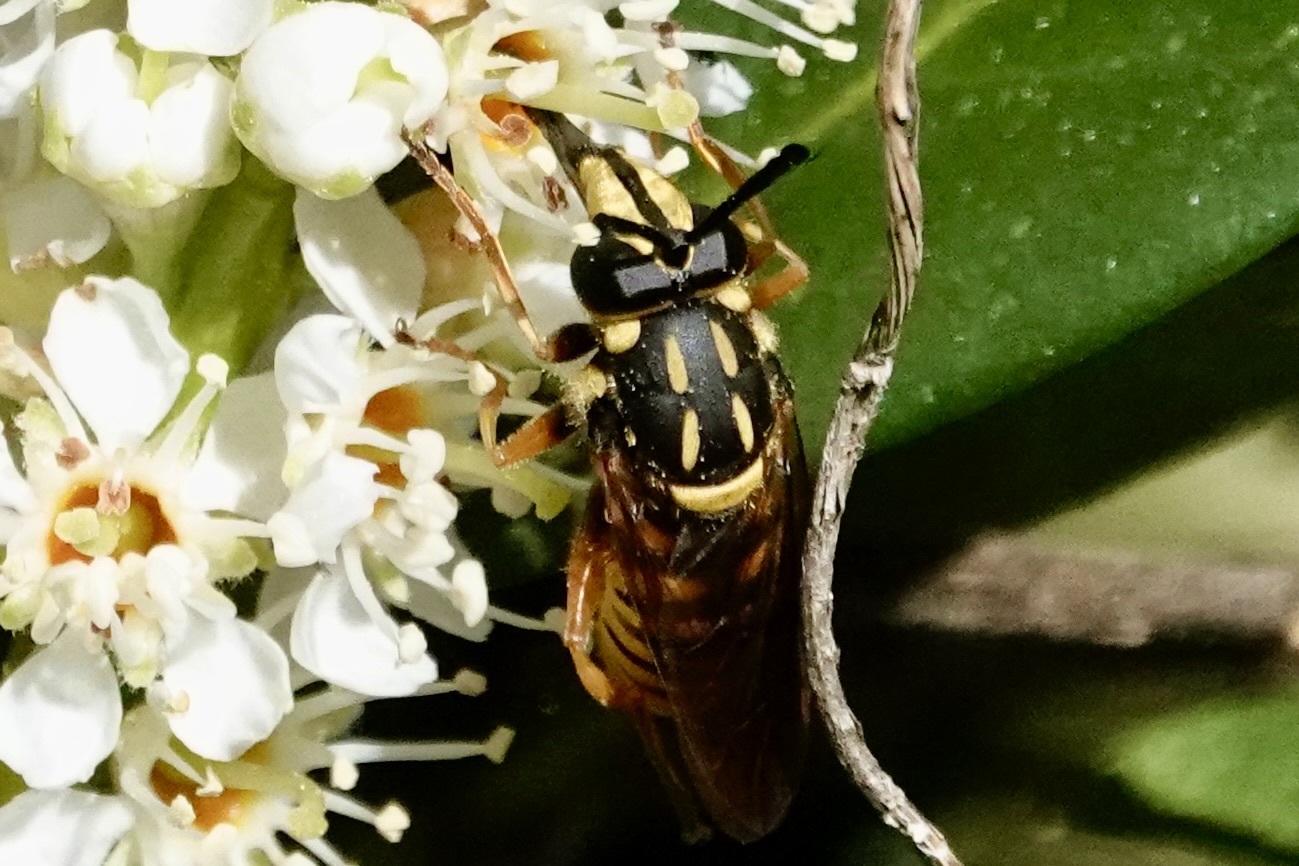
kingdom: Animalia
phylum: Arthropoda
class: Insecta
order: Diptera
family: Syrphidae
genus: Sphecomyia
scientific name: Sphecomyia vittata
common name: Long-horned yellowjacket fly
